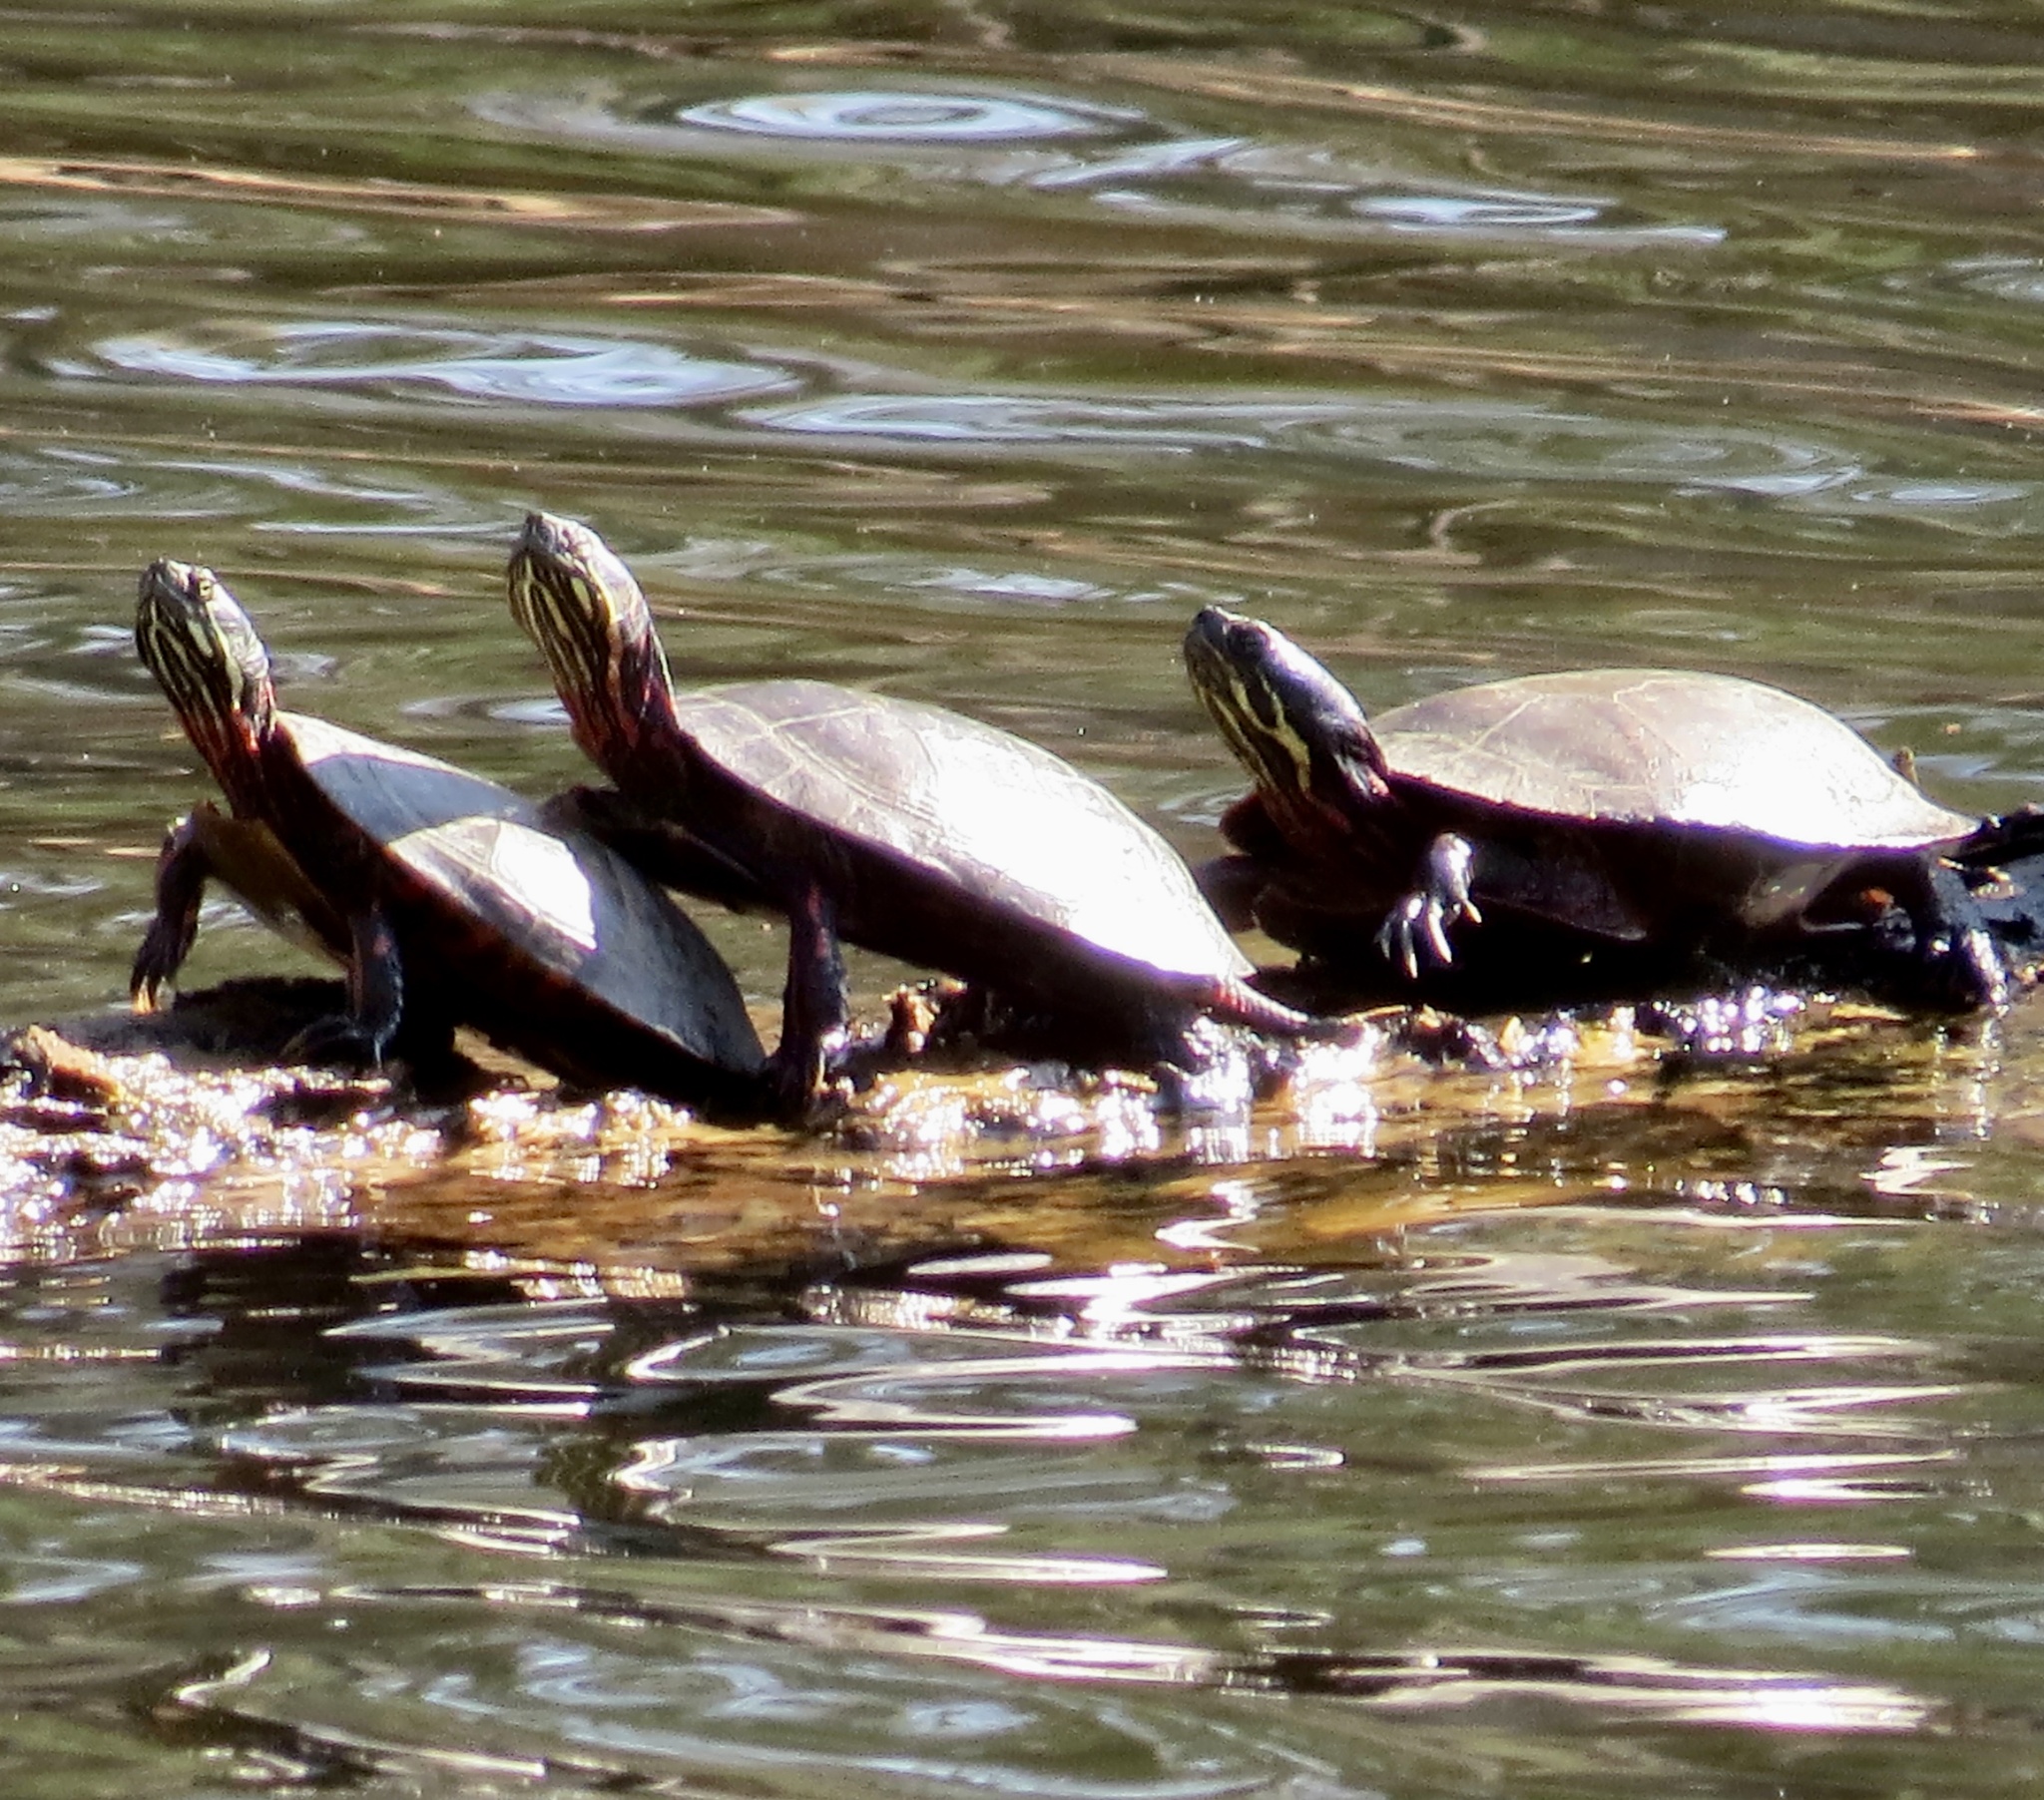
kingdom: Animalia
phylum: Chordata
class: Testudines
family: Emydidae
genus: Chrysemys
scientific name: Chrysemys picta
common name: Painted turtle
